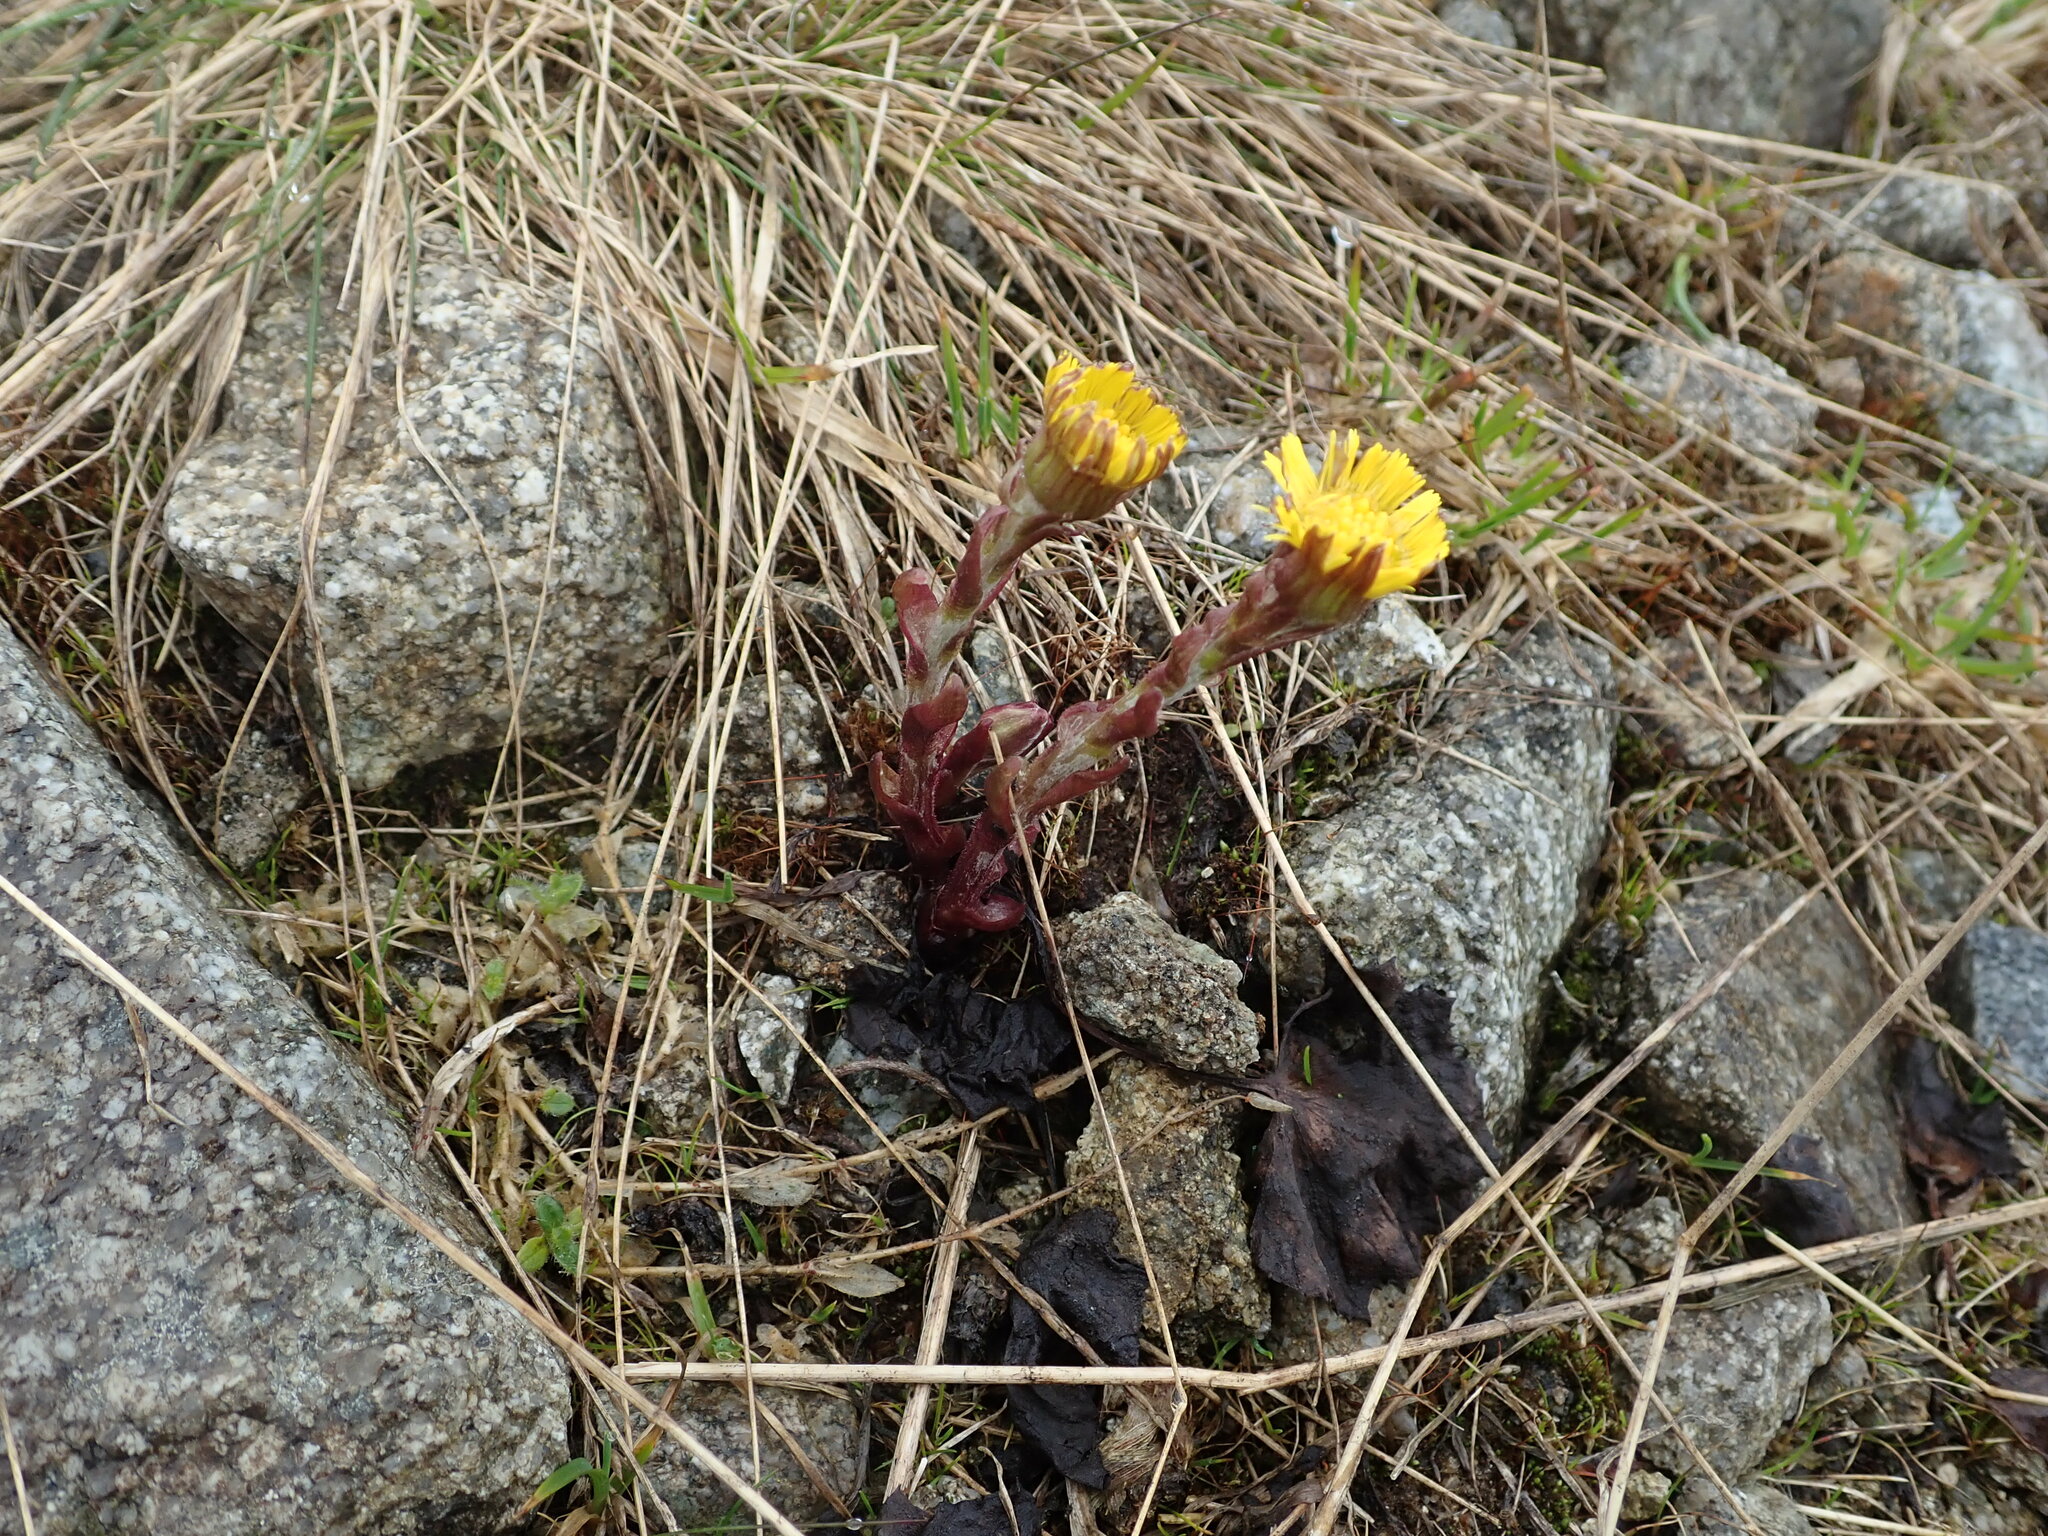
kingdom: Plantae
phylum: Tracheophyta
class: Magnoliopsida
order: Asterales
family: Asteraceae
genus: Tussilago
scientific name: Tussilago farfara
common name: Coltsfoot
